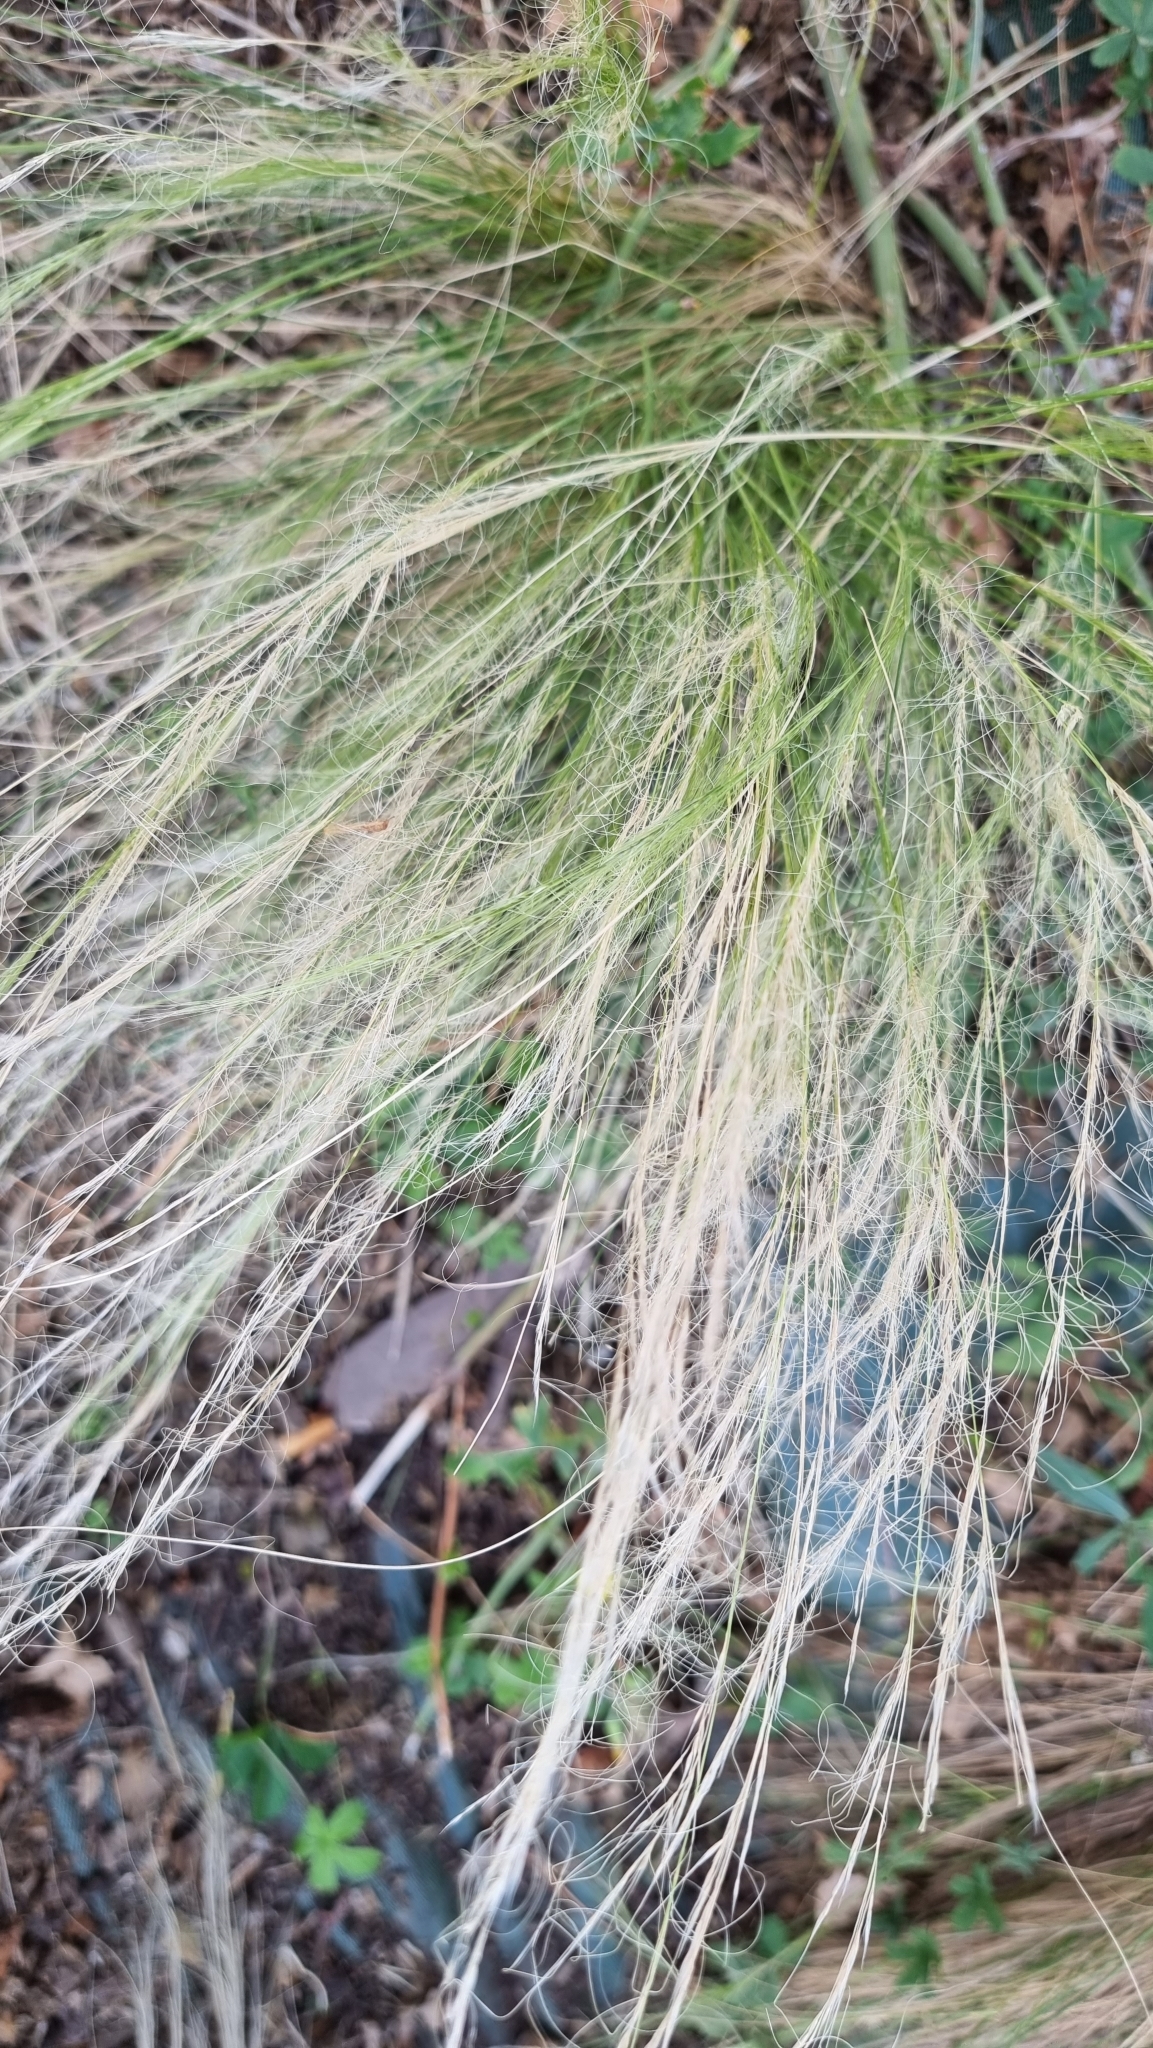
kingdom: Plantae
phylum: Tracheophyta
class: Liliopsida
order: Poales
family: Poaceae
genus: Nassella
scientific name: Nassella tenuissima
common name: Argentine needlegrass
